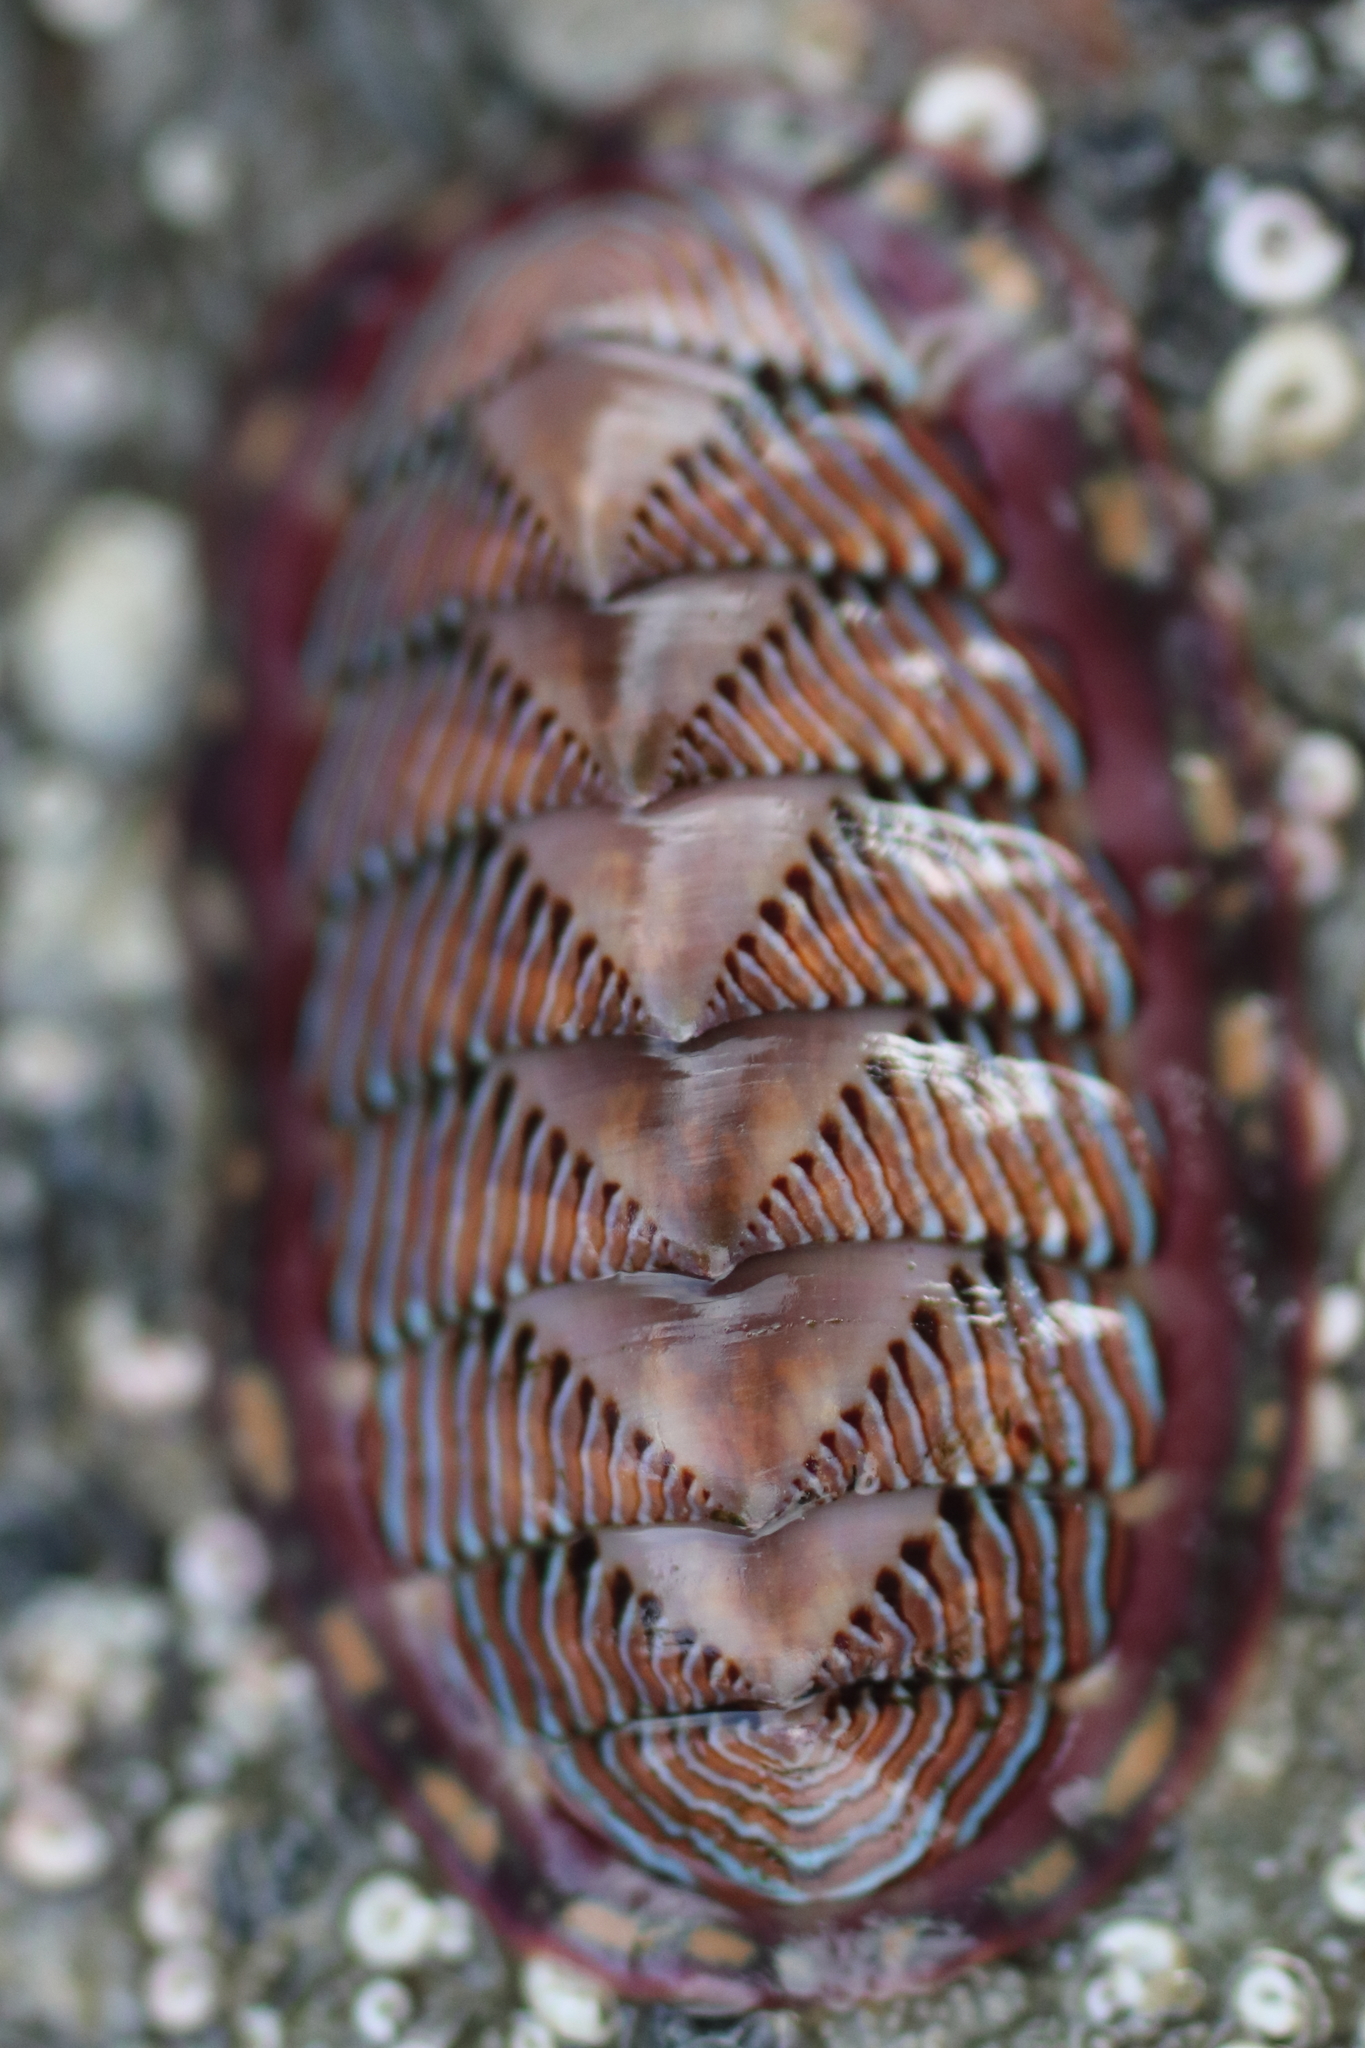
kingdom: Animalia
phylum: Mollusca
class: Polyplacophora
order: Chitonida
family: Tonicellidae
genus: Tonicella
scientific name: Tonicella lineata
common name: Lined chiton
